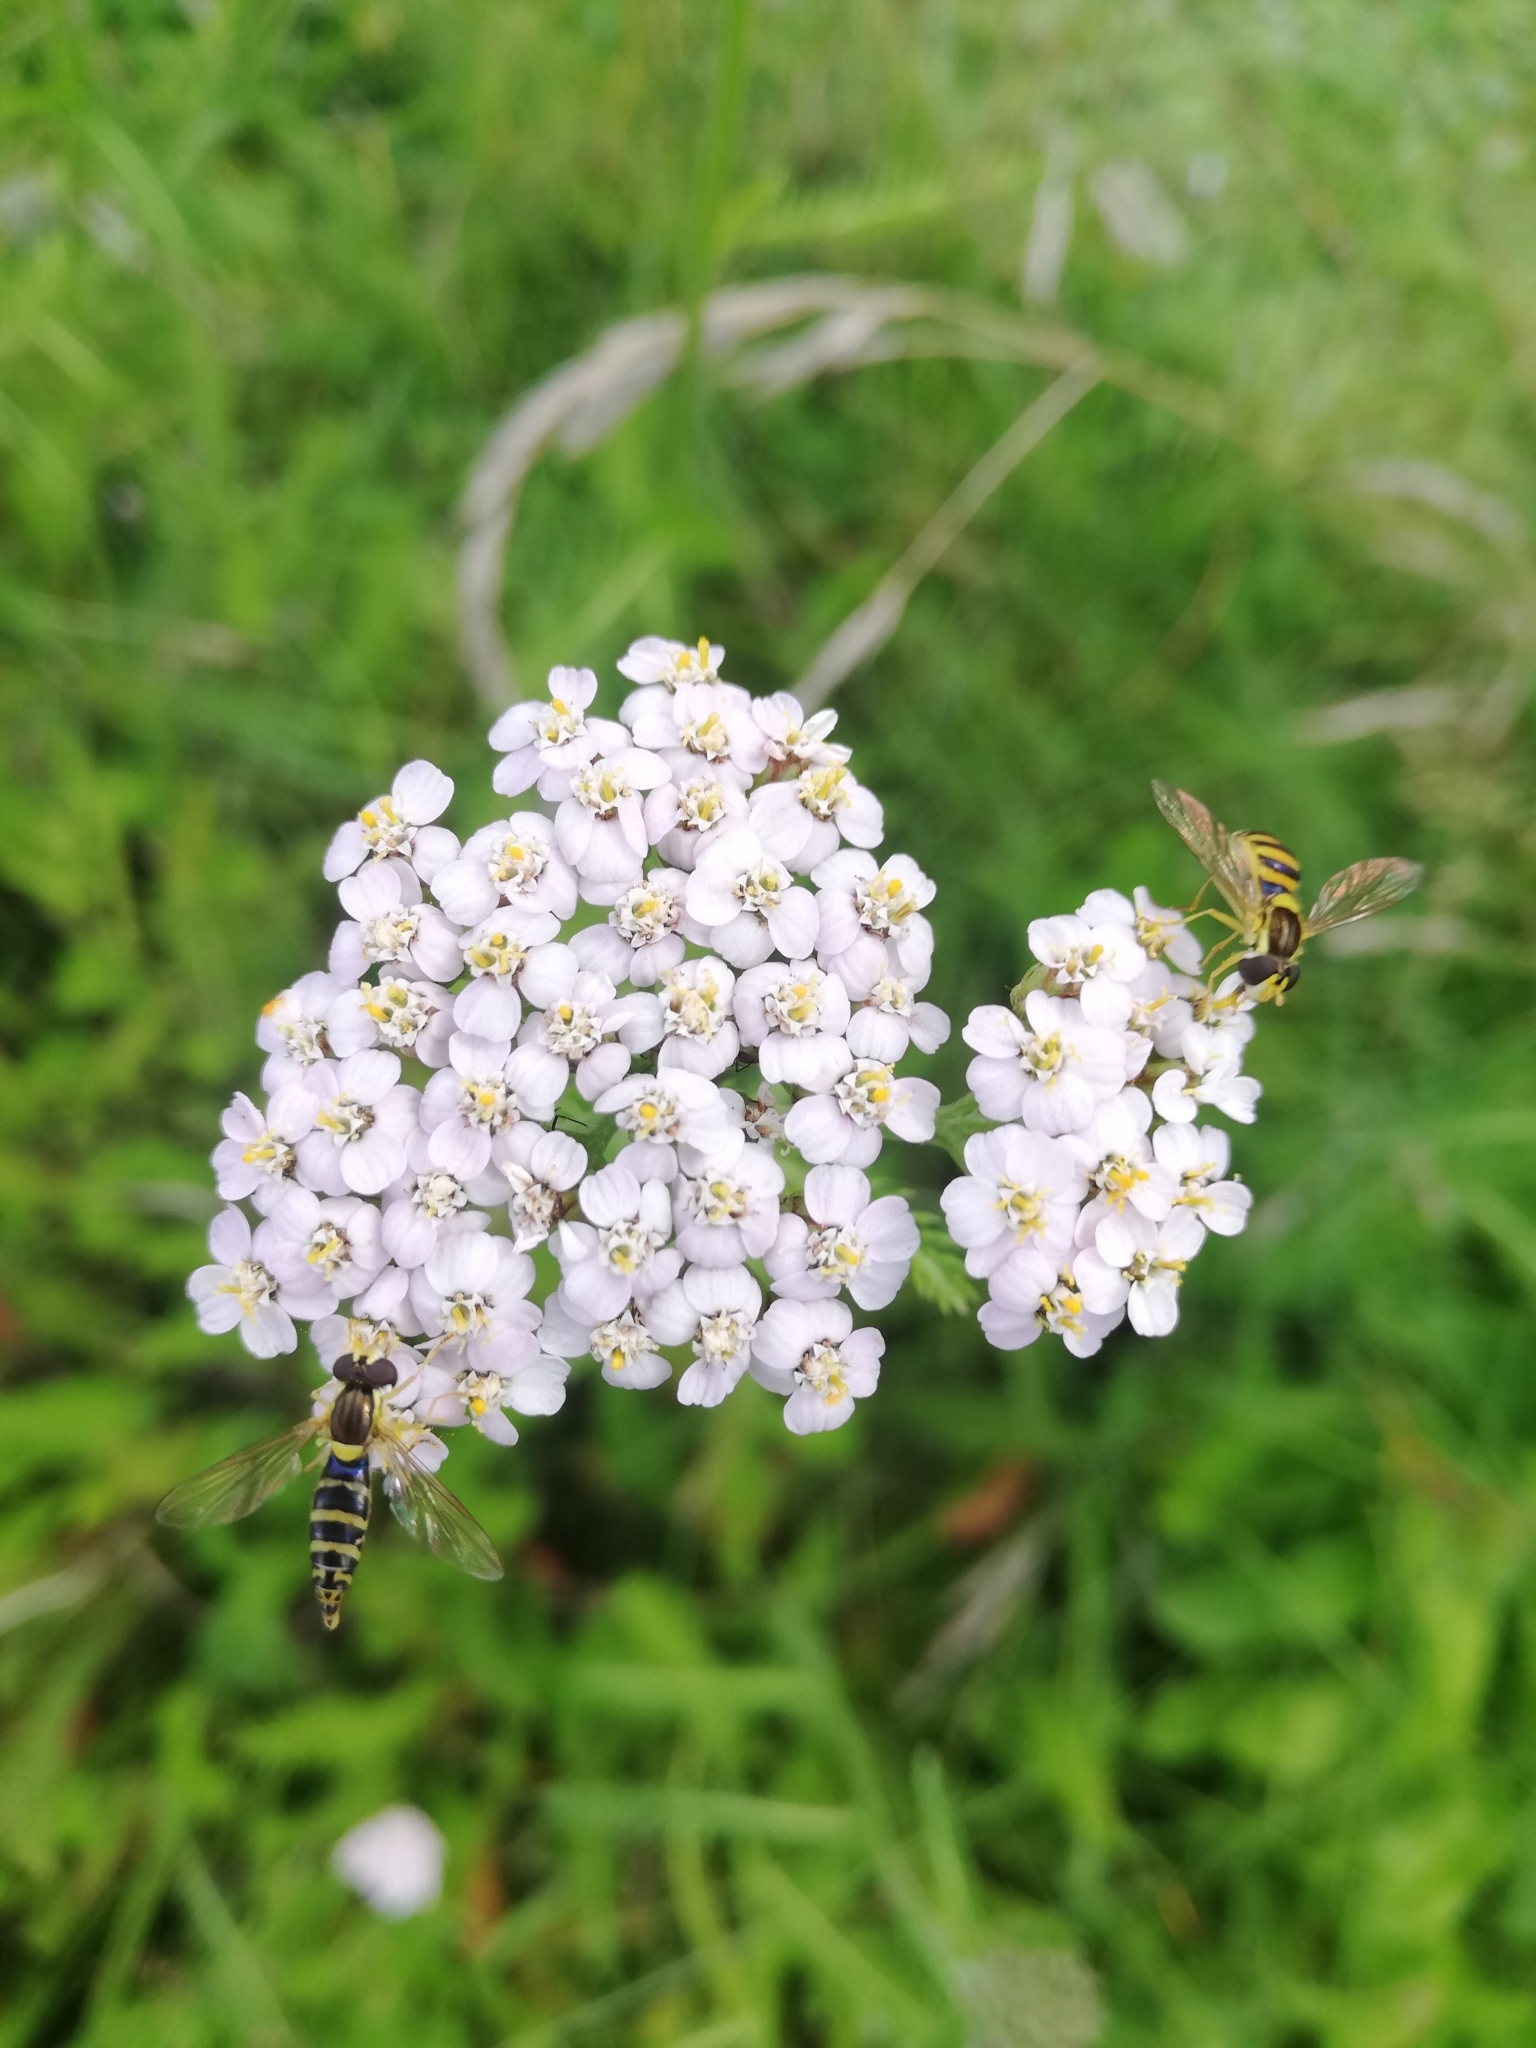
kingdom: Animalia
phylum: Arthropoda
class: Insecta
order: Diptera
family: Syrphidae
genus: Sphaerophoria
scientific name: Sphaerophoria
